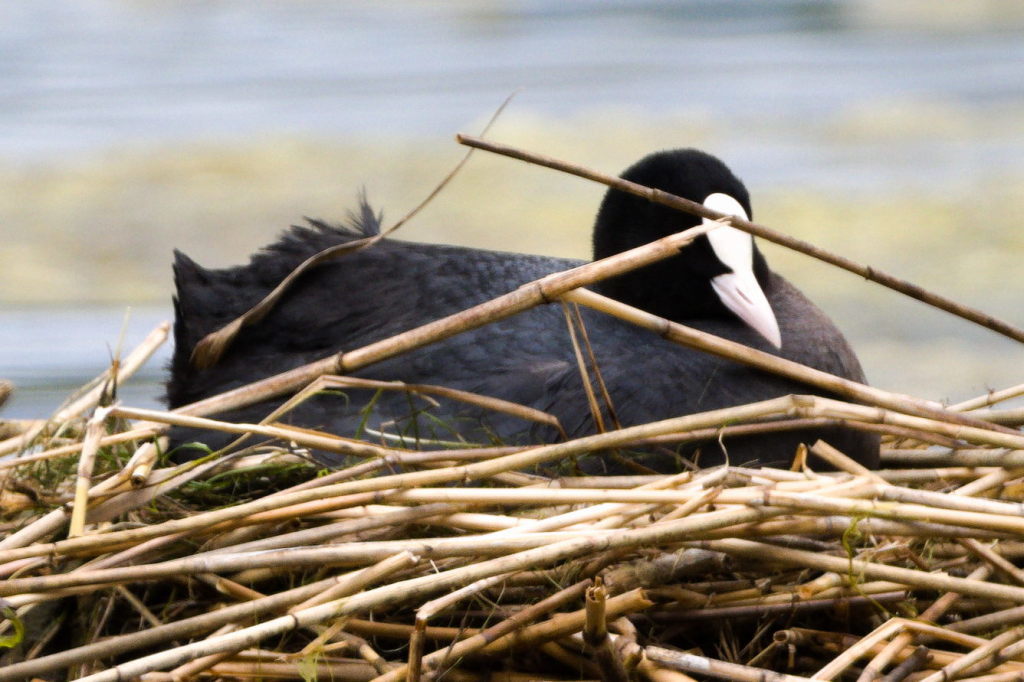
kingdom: Animalia
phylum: Chordata
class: Aves
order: Gruiformes
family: Rallidae
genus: Fulica
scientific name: Fulica atra
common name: Eurasian coot
